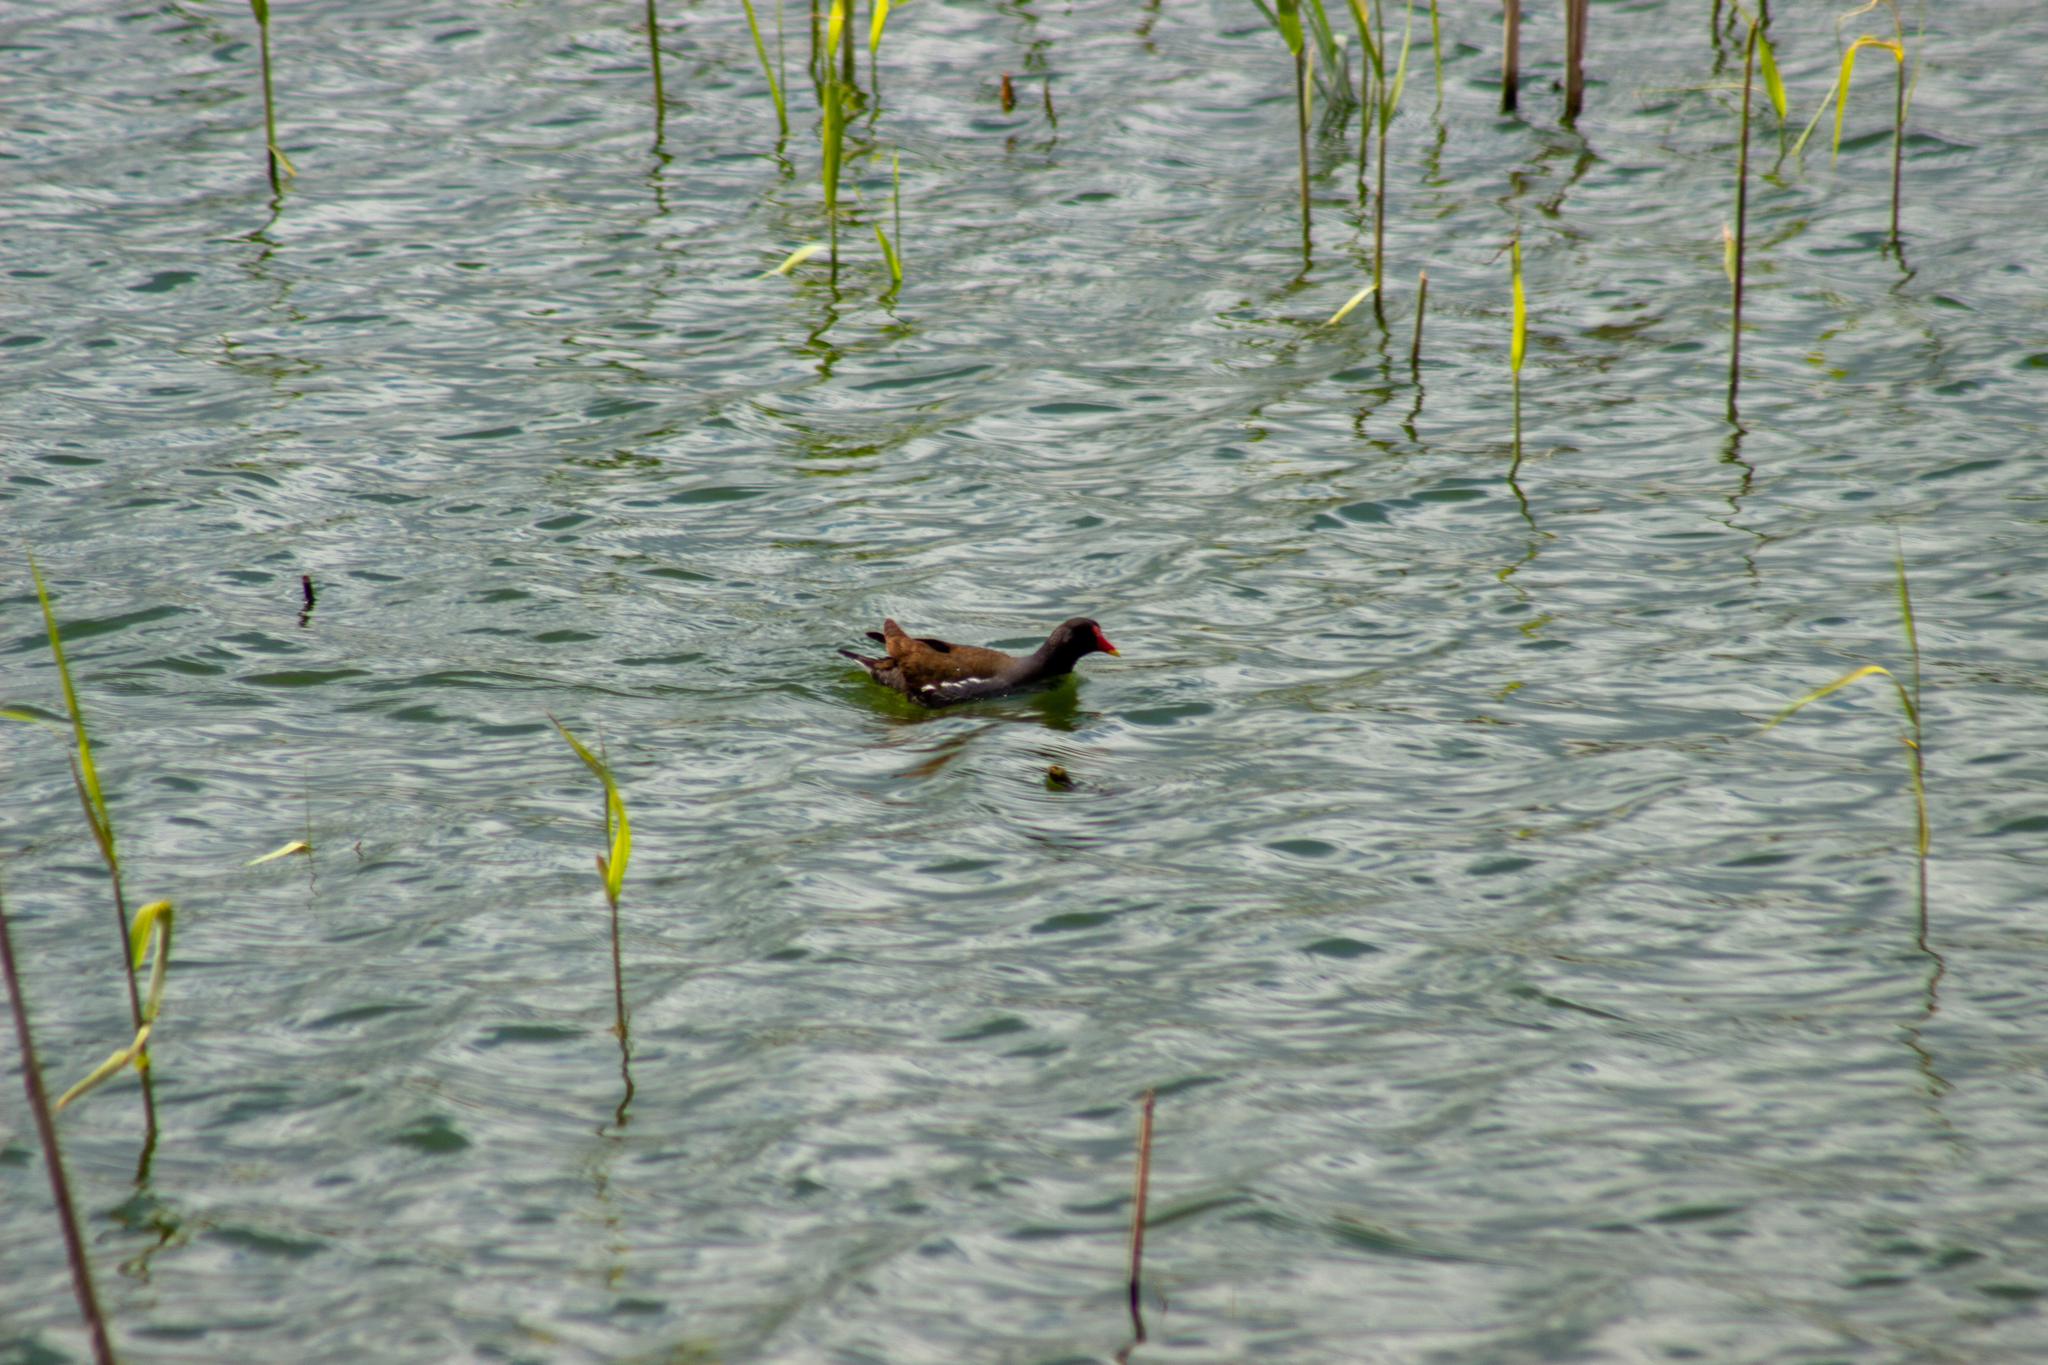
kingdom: Animalia
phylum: Chordata
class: Aves
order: Gruiformes
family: Rallidae
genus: Gallinula
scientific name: Gallinula chloropus
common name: Common moorhen
